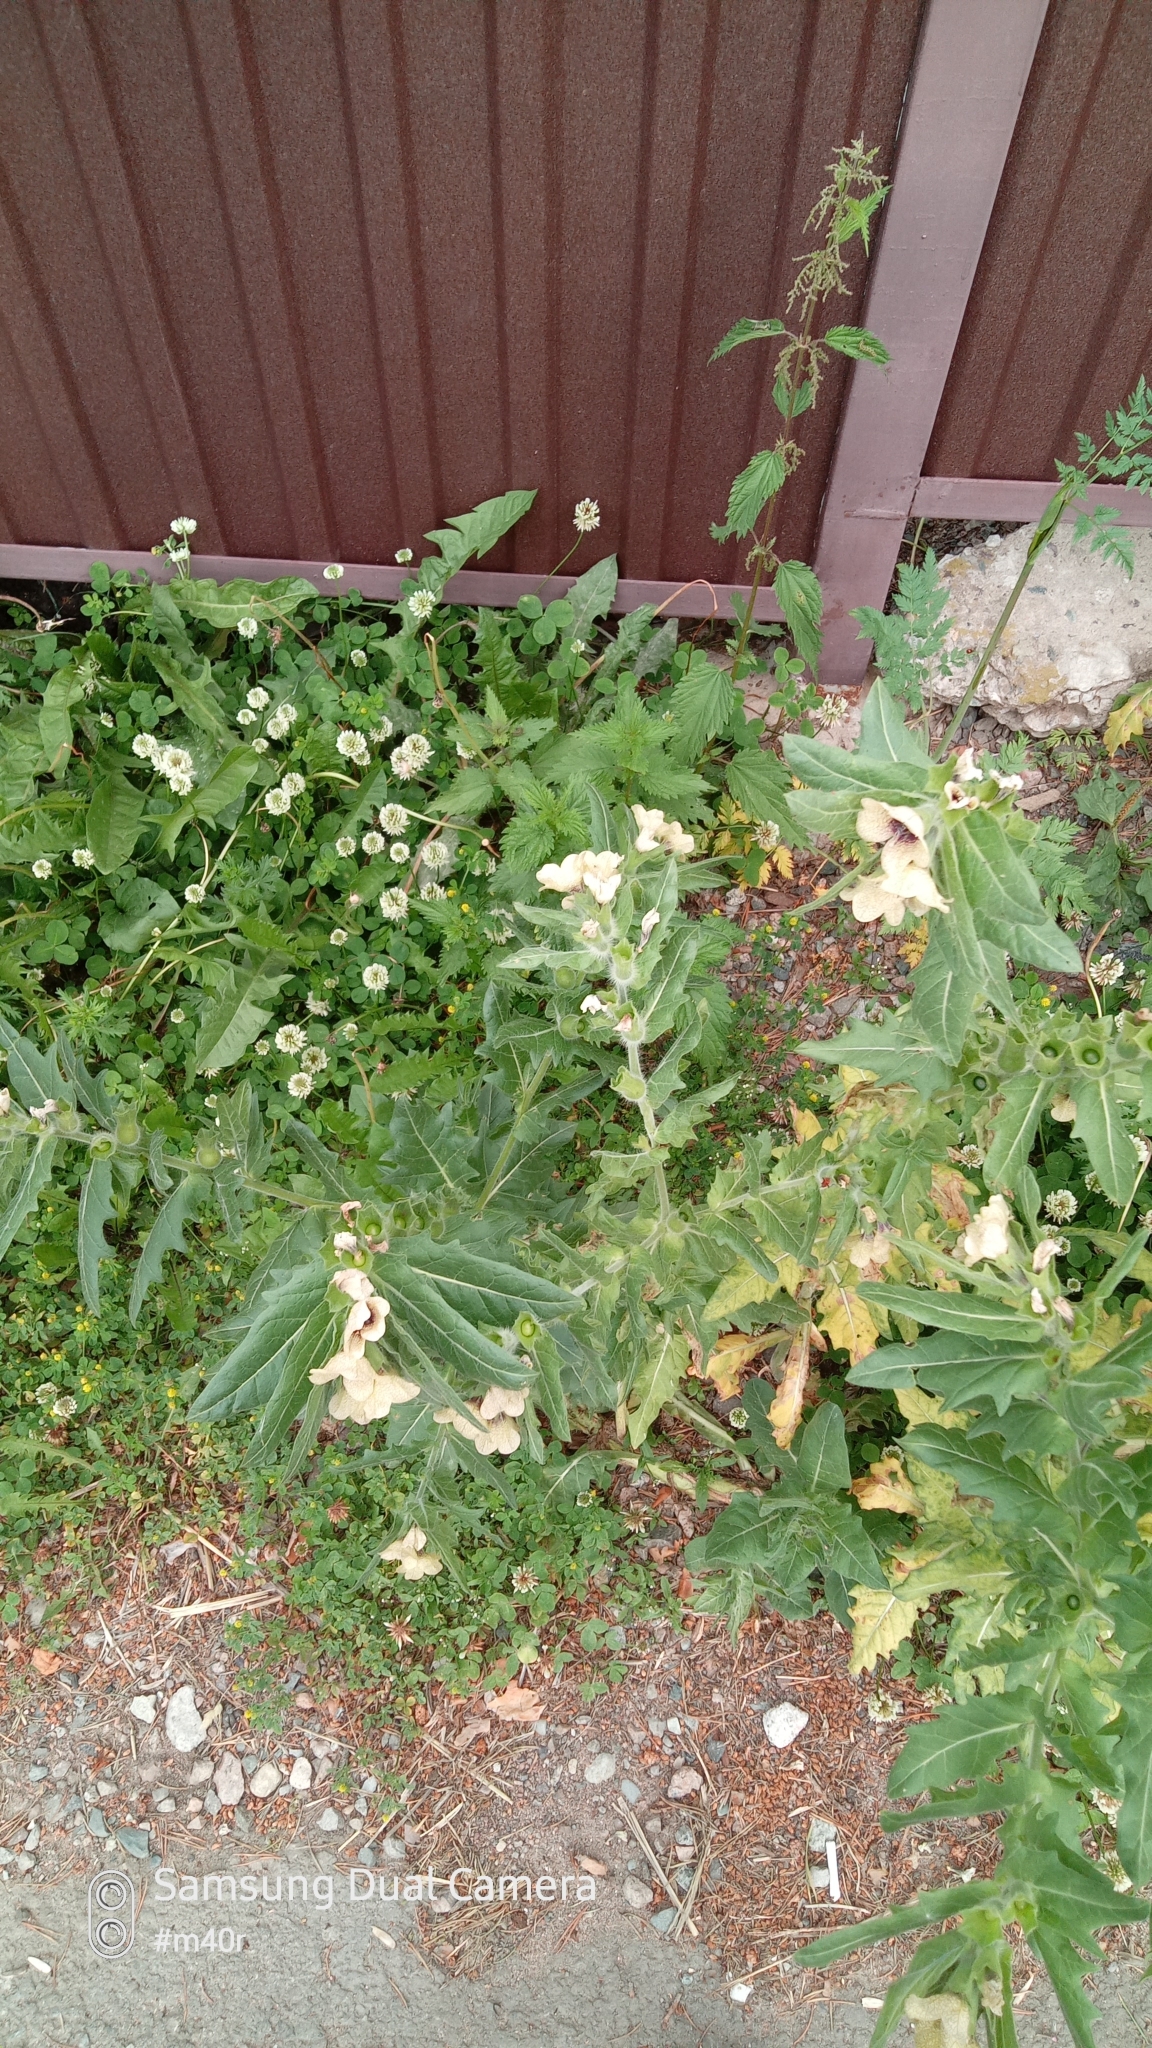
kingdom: Plantae
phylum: Tracheophyta
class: Magnoliopsida
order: Solanales
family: Solanaceae
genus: Hyoscyamus
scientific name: Hyoscyamus niger
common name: Henbane
